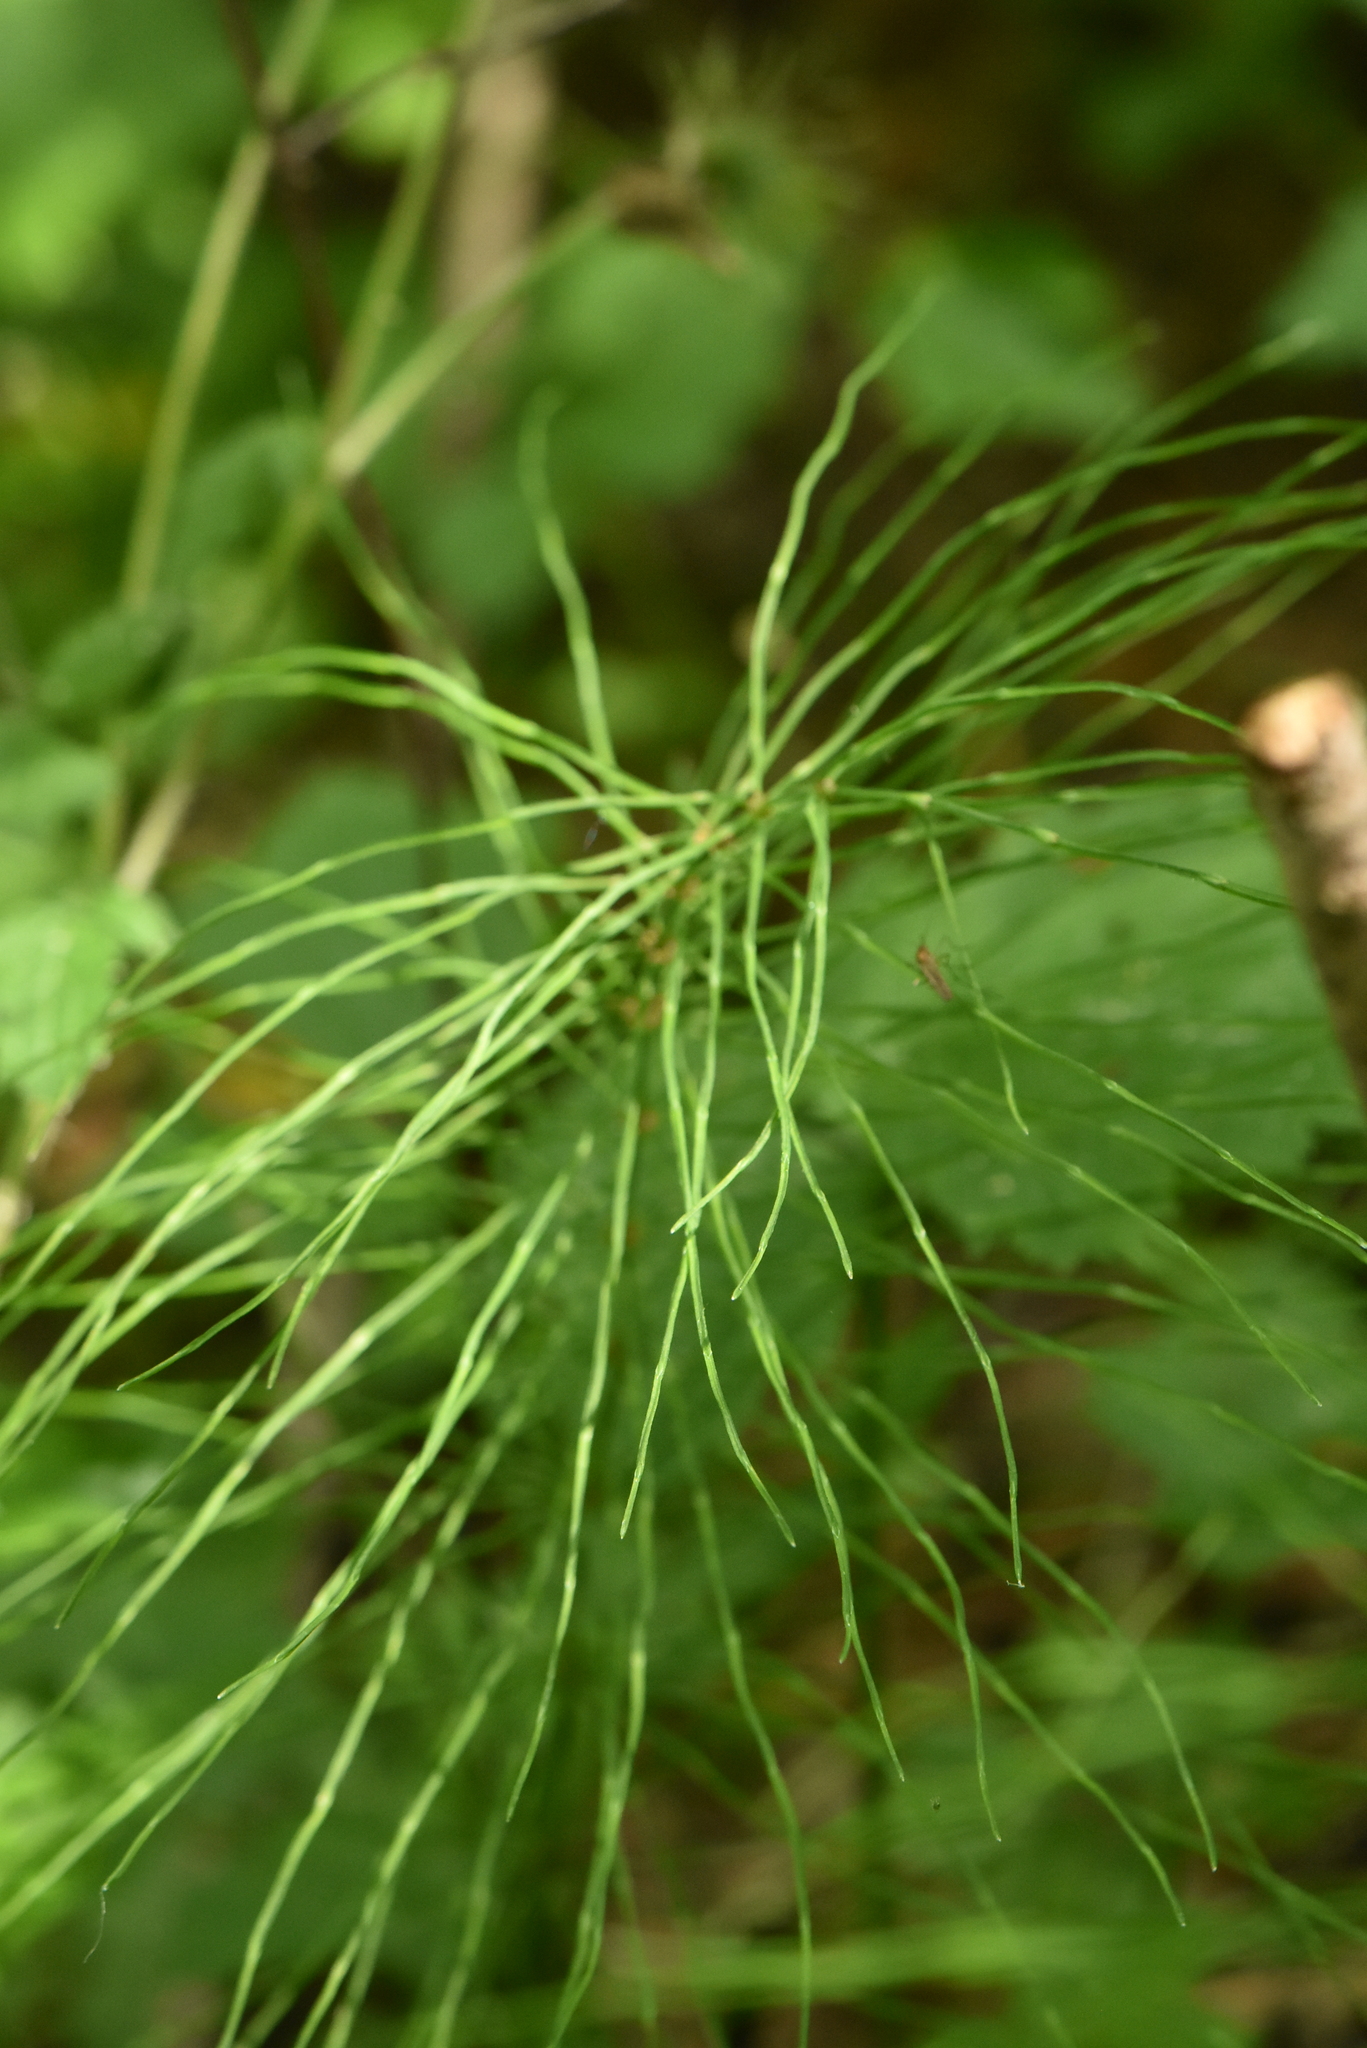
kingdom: Plantae
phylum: Tracheophyta
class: Polypodiopsida
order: Equisetales
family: Equisetaceae
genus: Equisetum
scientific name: Equisetum pratense
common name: Meadow horsetail
